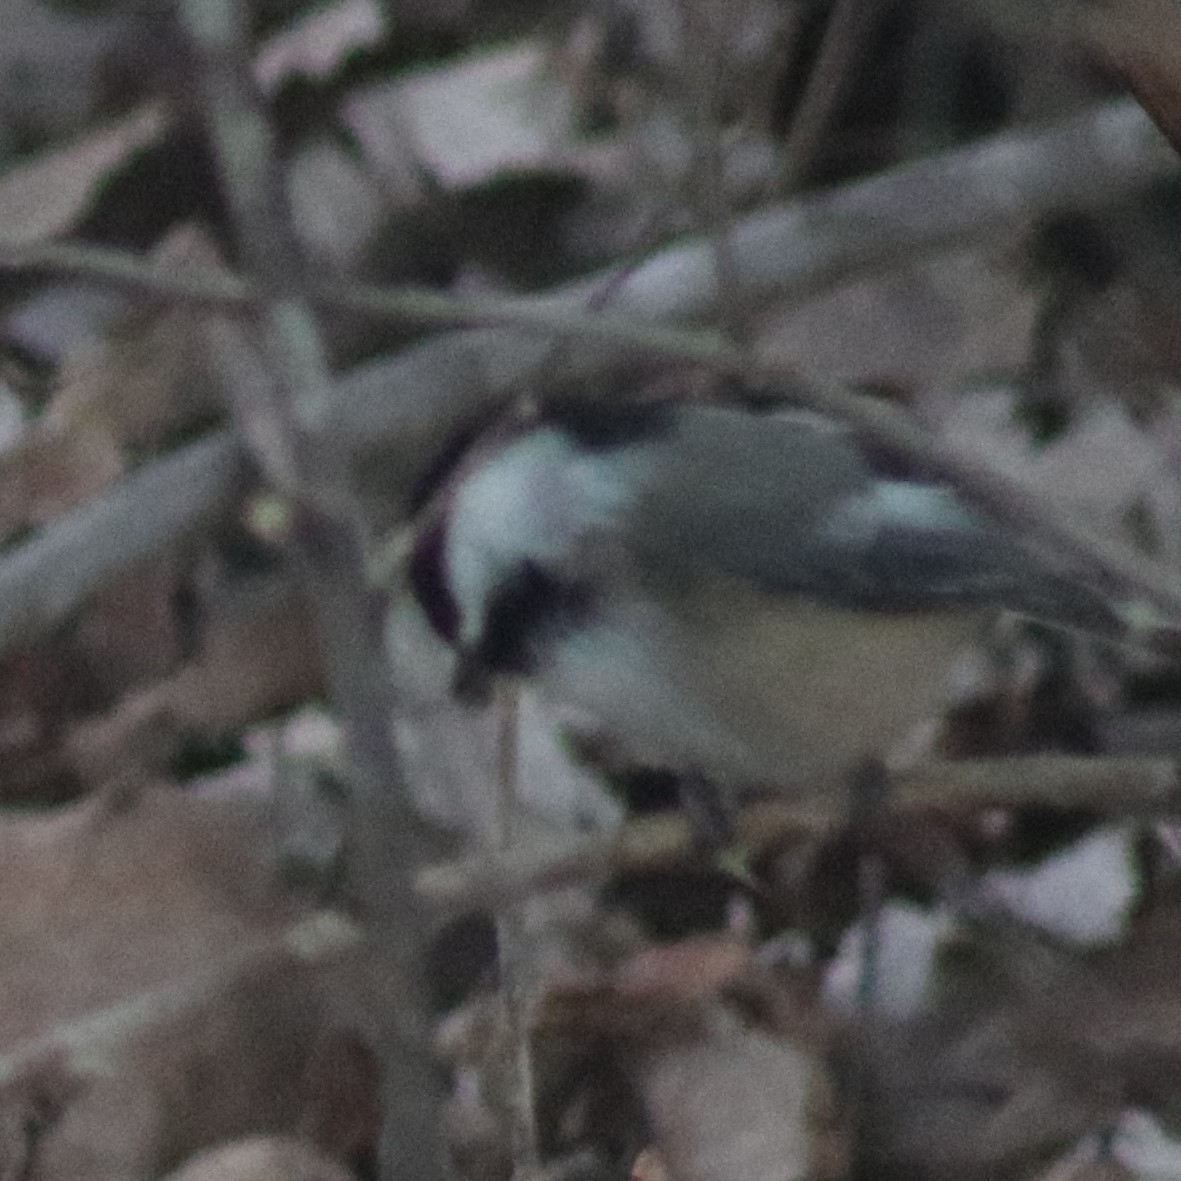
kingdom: Animalia
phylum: Chordata
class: Aves
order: Passeriformes
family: Paridae
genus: Poecile
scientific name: Poecile atricapillus
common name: Black-capped chickadee
